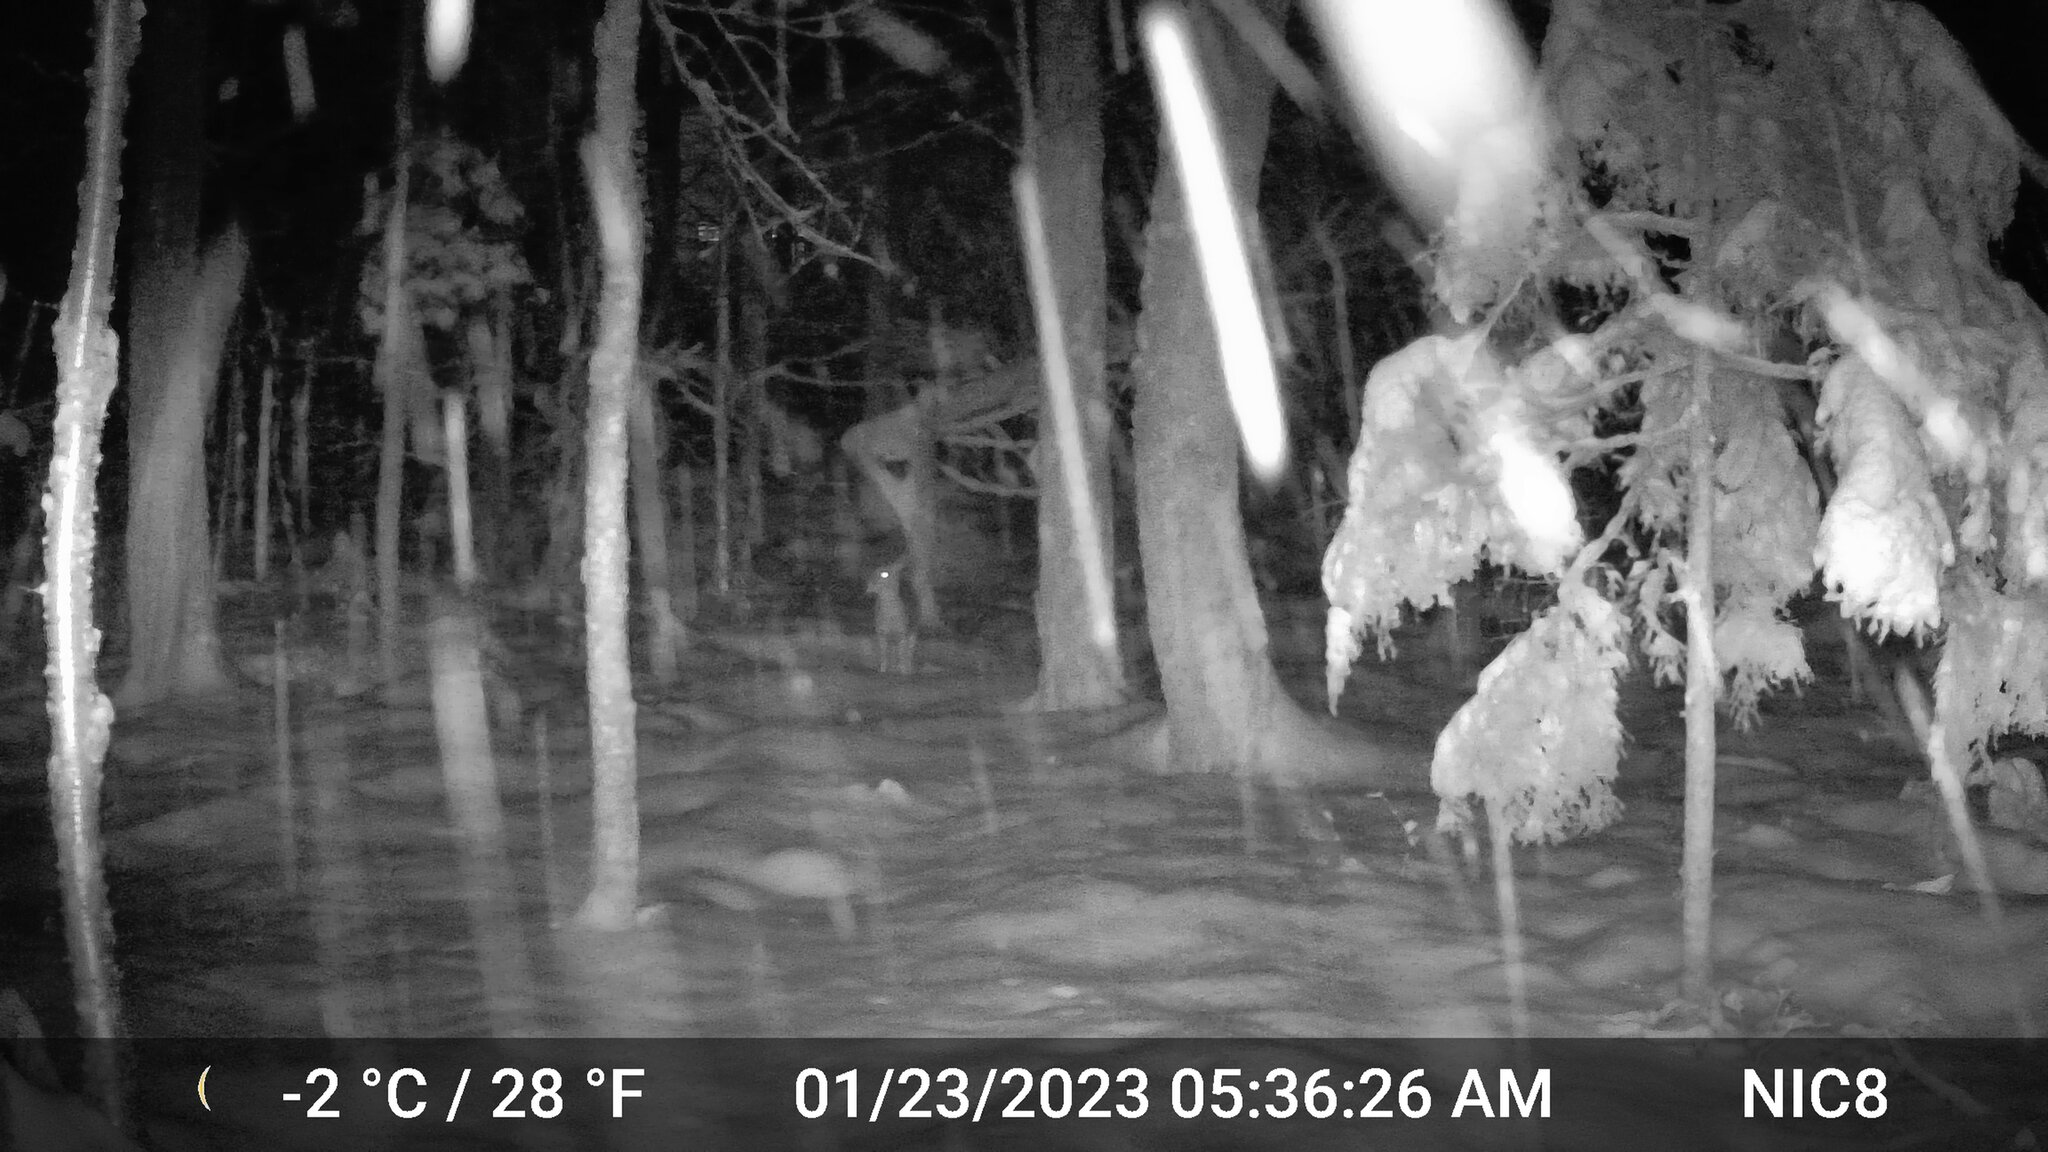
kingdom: Animalia
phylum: Chordata
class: Mammalia
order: Artiodactyla
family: Cervidae
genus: Odocoileus
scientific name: Odocoileus virginianus
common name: White-tailed deer
